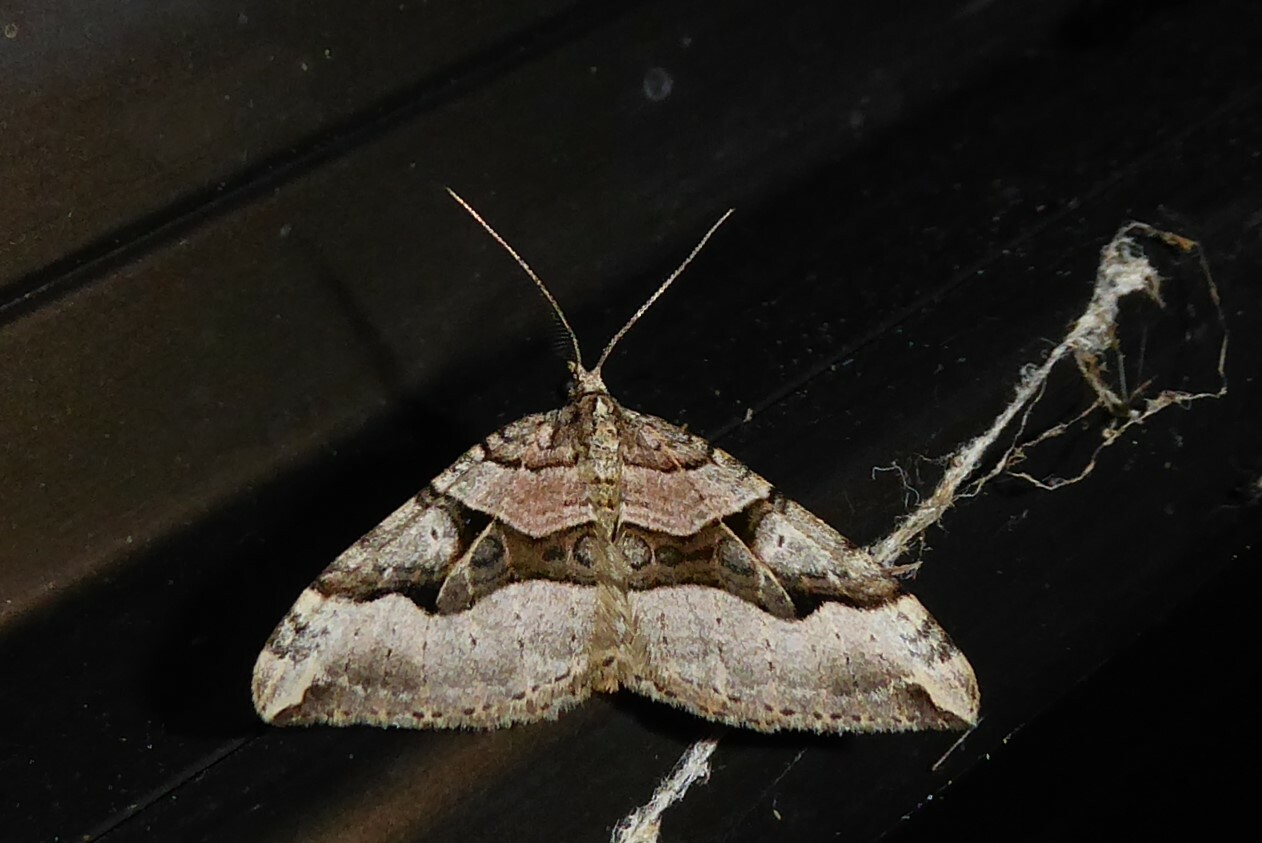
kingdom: Animalia
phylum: Arthropoda
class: Insecta
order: Lepidoptera
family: Geometridae
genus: Xanthorhoe
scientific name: Xanthorhoe semifissata
